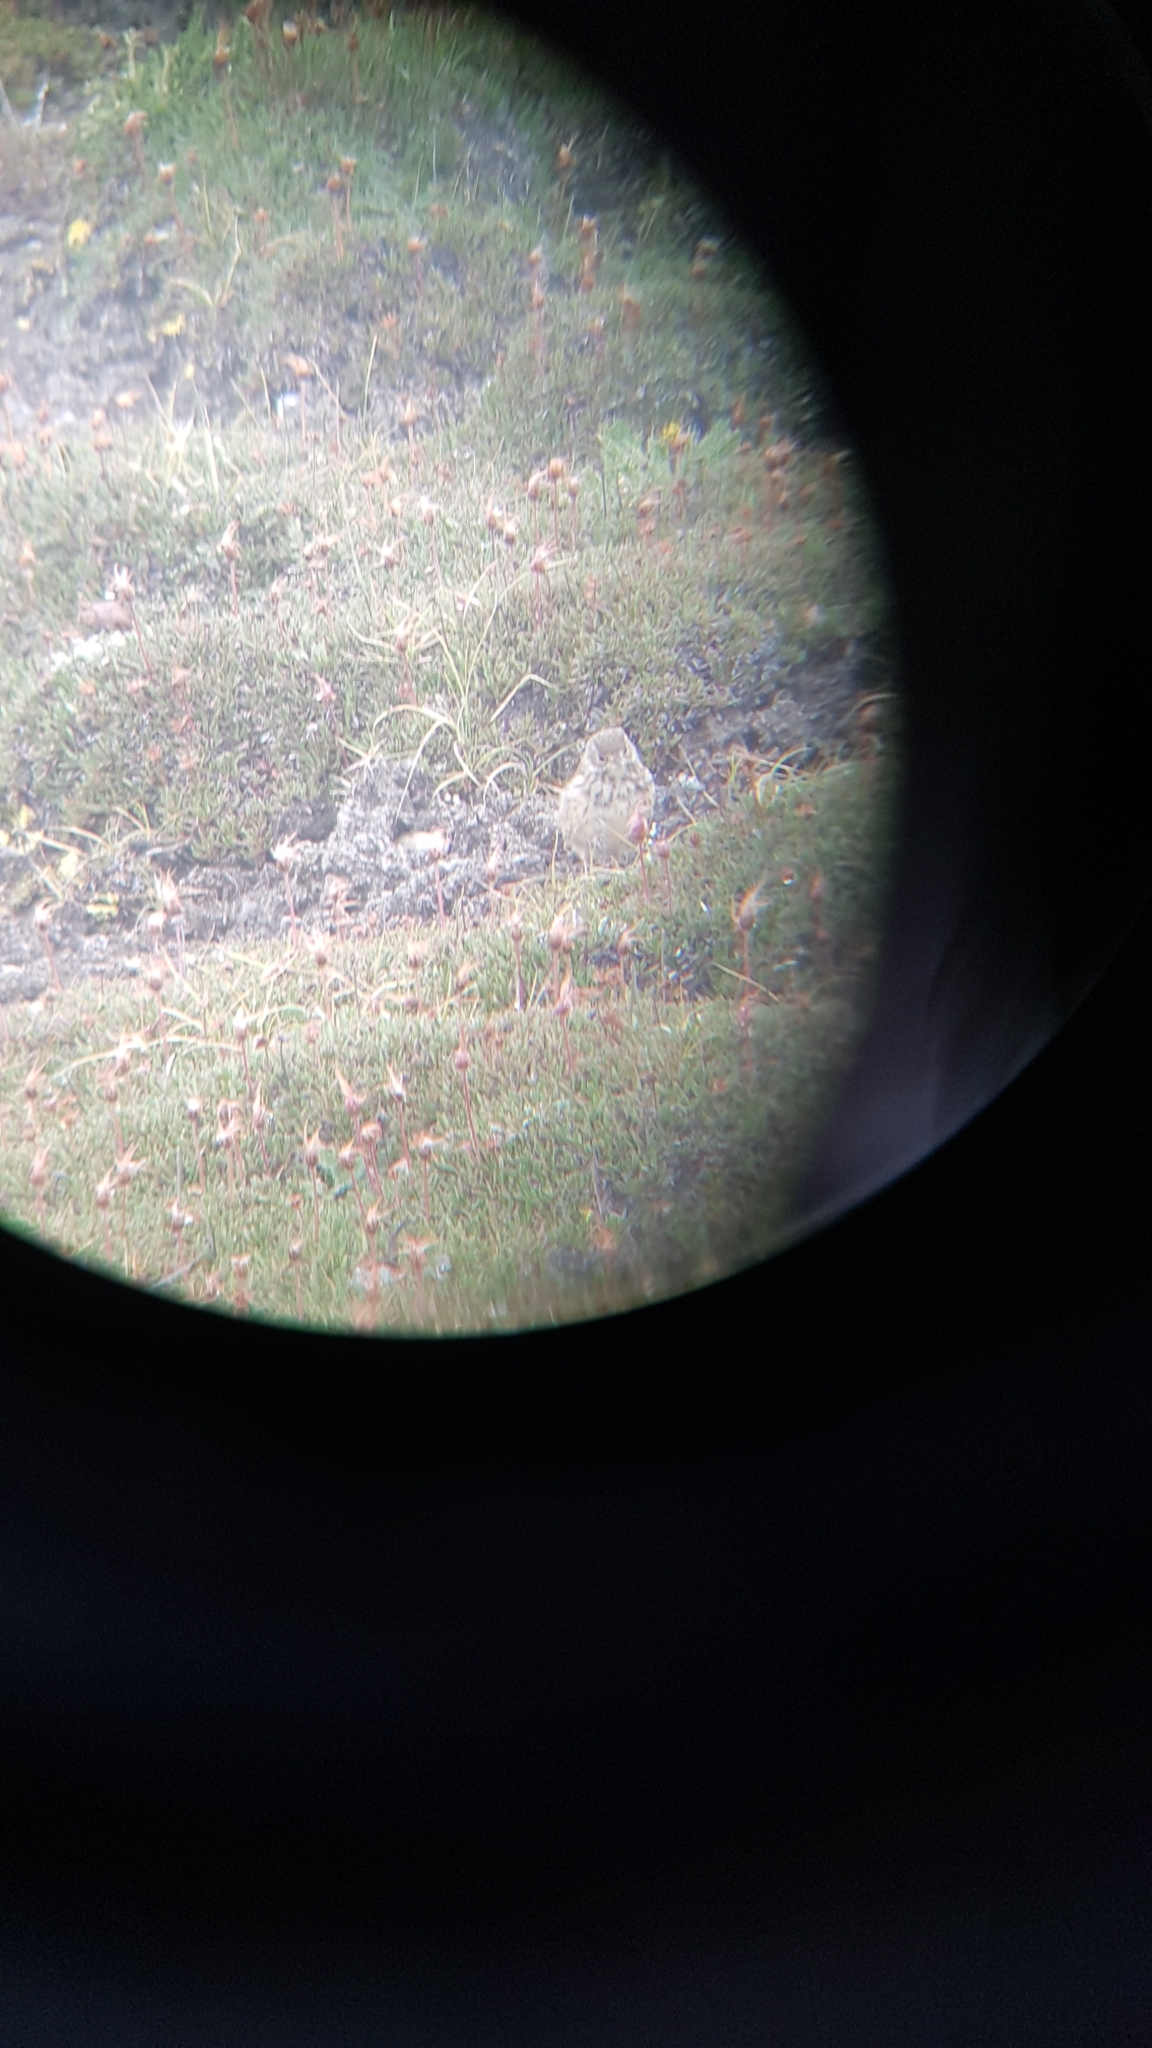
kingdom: Animalia
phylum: Chordata
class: Aves
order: Passeriformes
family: Motacillidae
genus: Anthus
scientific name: Anthus rubescens
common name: Buff-bellied pipit
